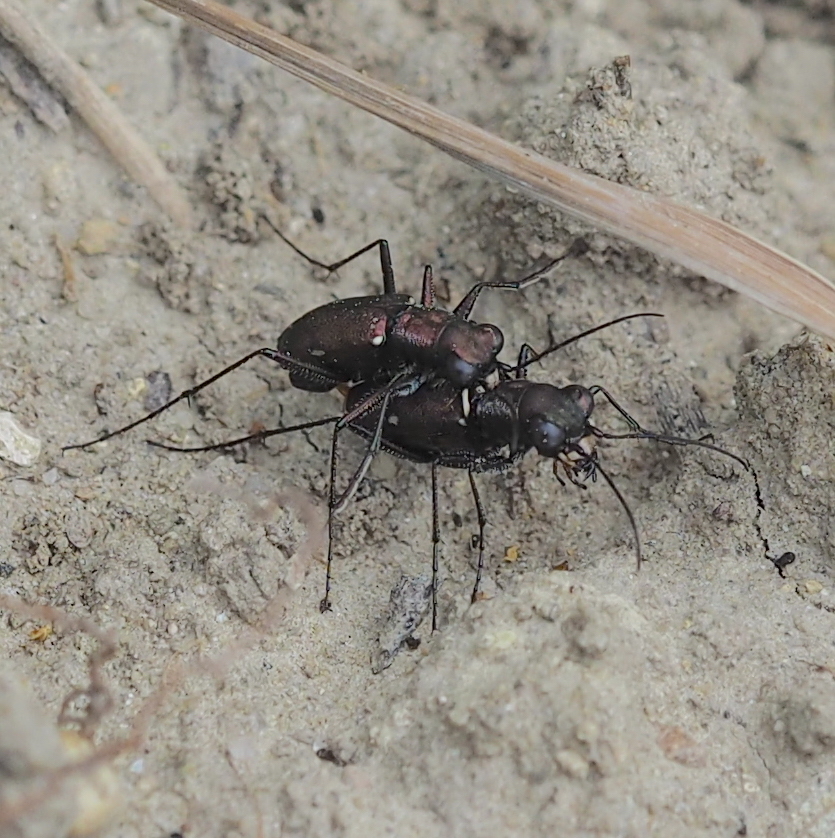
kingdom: Animalia
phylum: Arthropoda
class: Insecta
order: Coleoptera
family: Carabidae
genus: Cylindera
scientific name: Cylindera germanica
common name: Cliff tiger beetle
